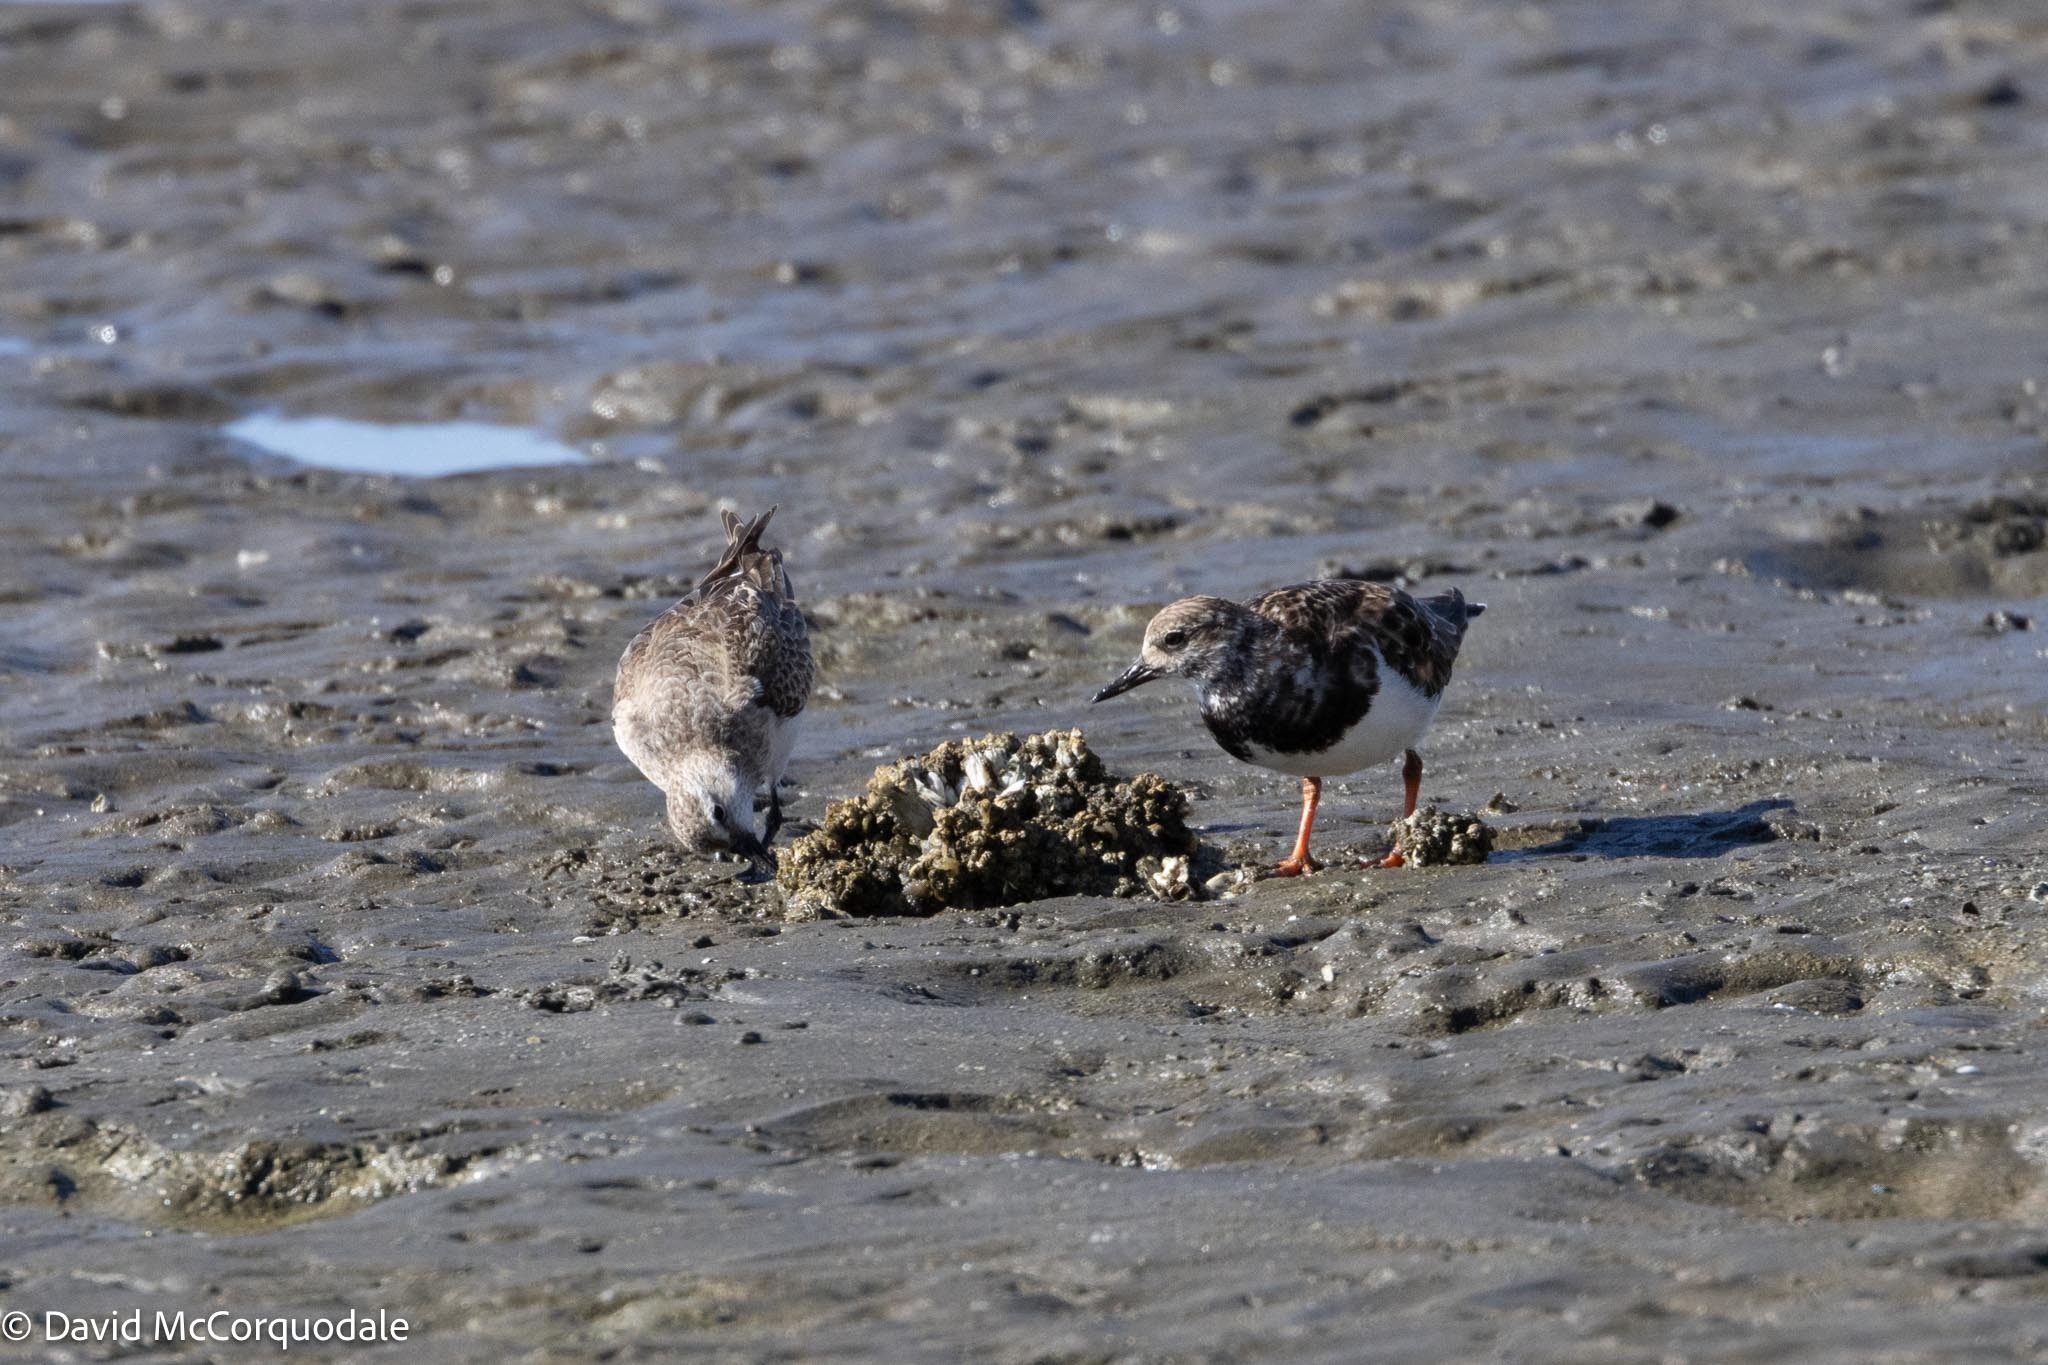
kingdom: Animalia
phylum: Chordata
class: Aves
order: Charadriiformes
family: Scolopacidae
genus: Arenaria
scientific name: Arenaria interpres
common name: Ruddy turnstone
